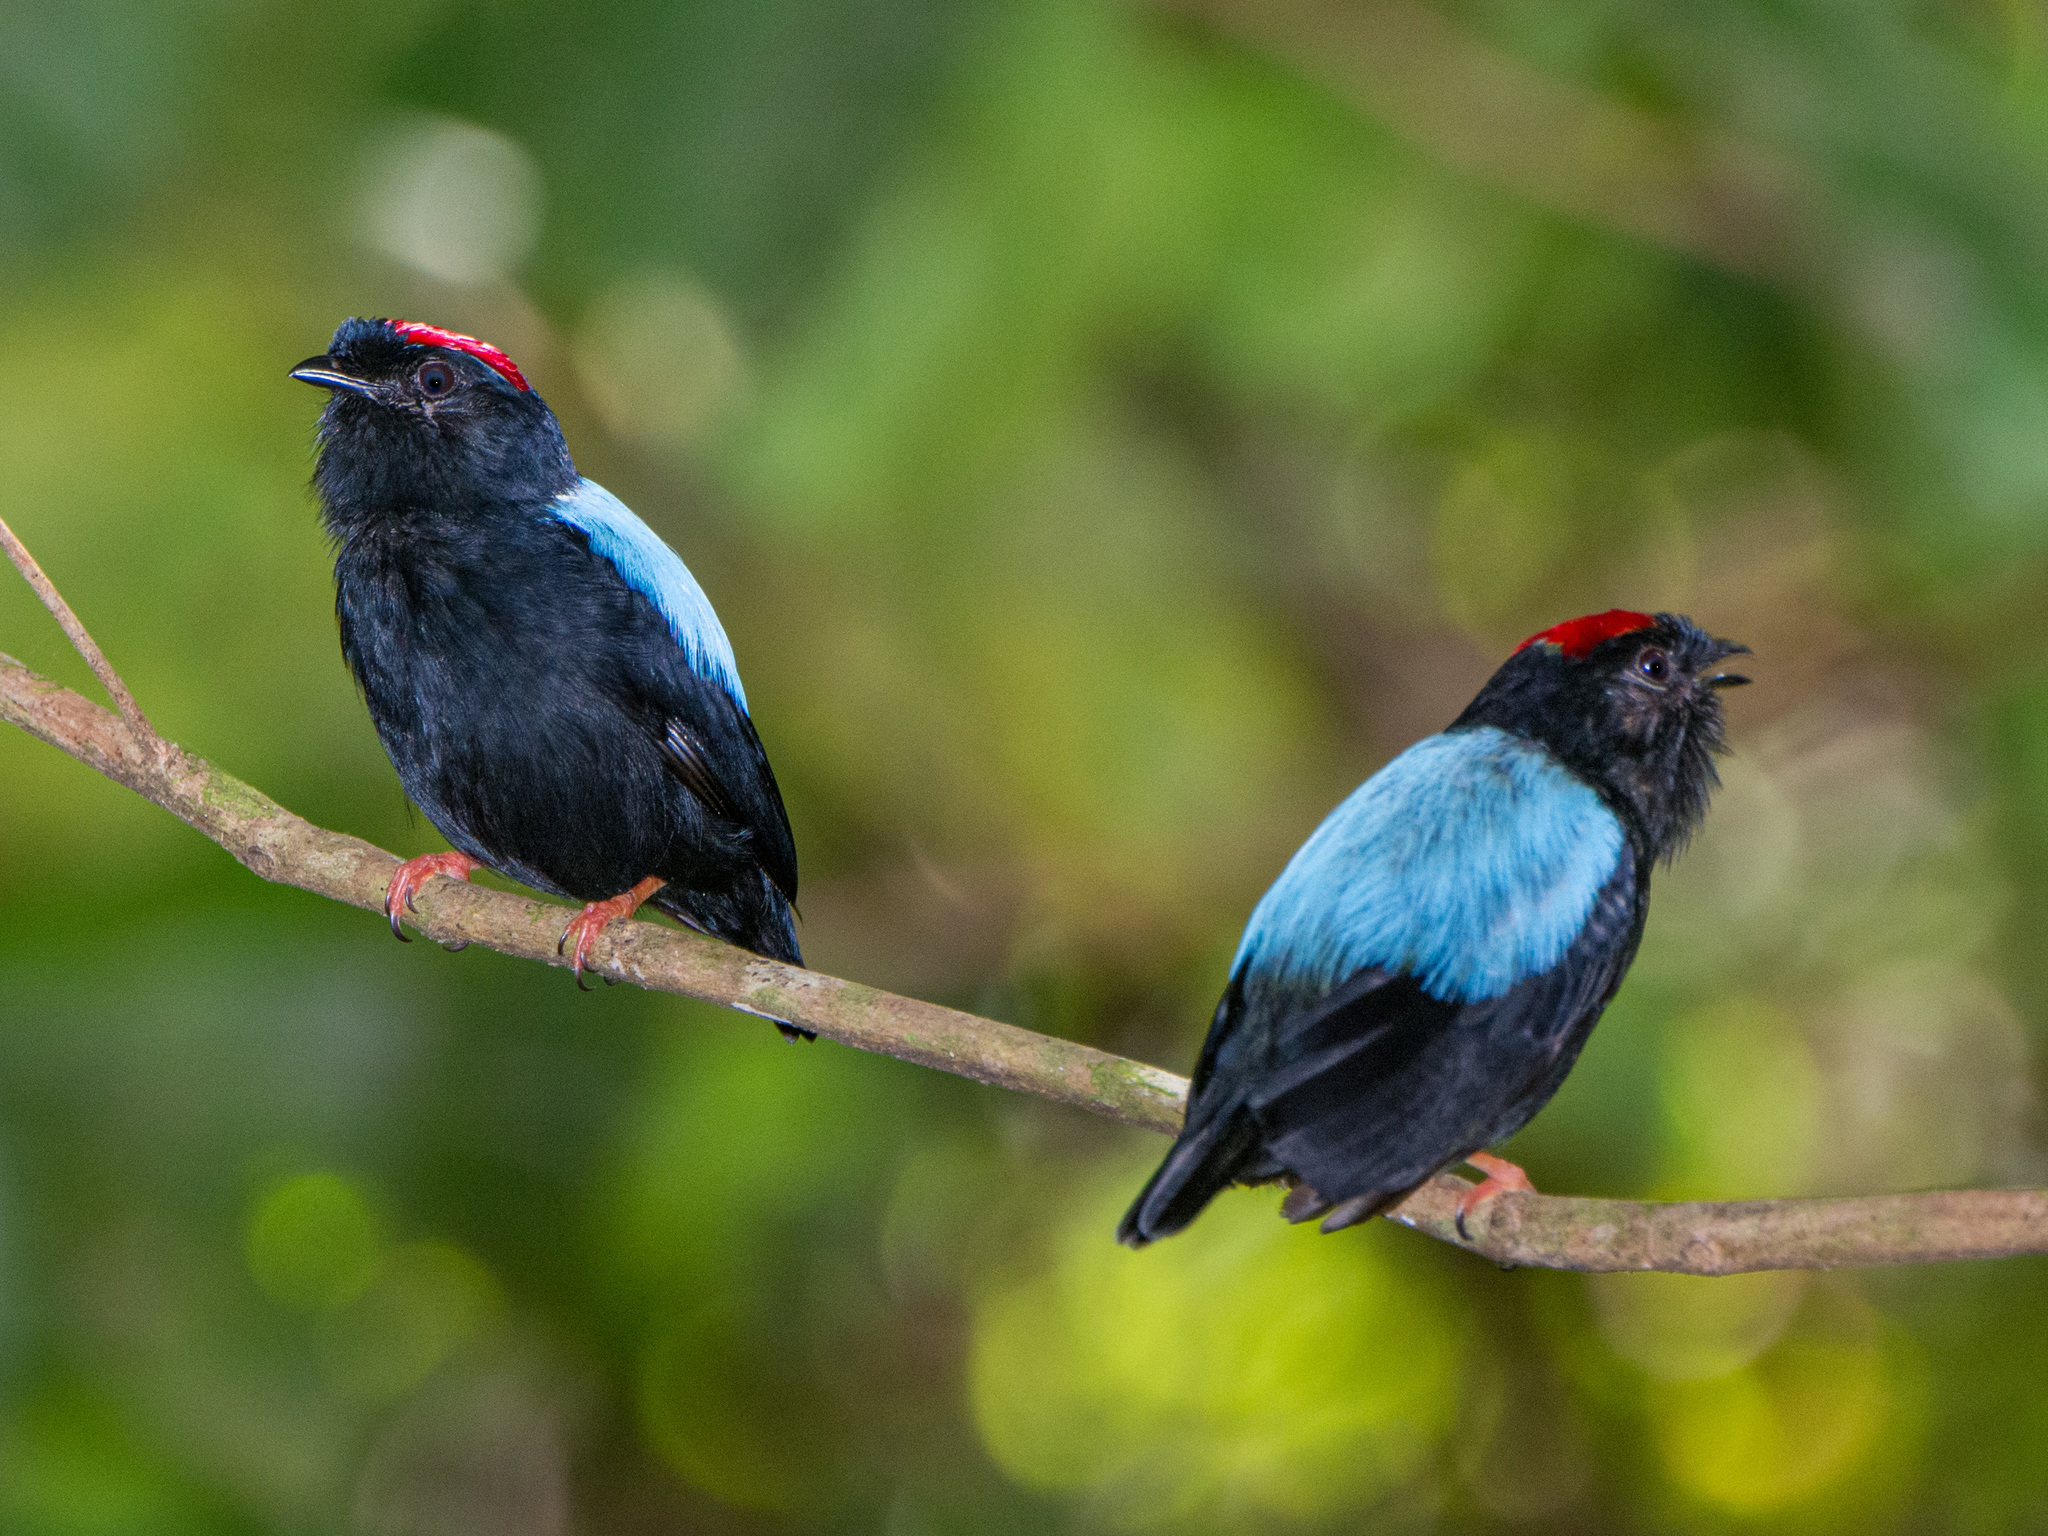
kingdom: Animalia
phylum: Chordata
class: Aves
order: Passeriformes
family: Pipridae
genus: Chiroxiphia
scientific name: Chiroxiphia pareola
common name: Blue-backed manakin
